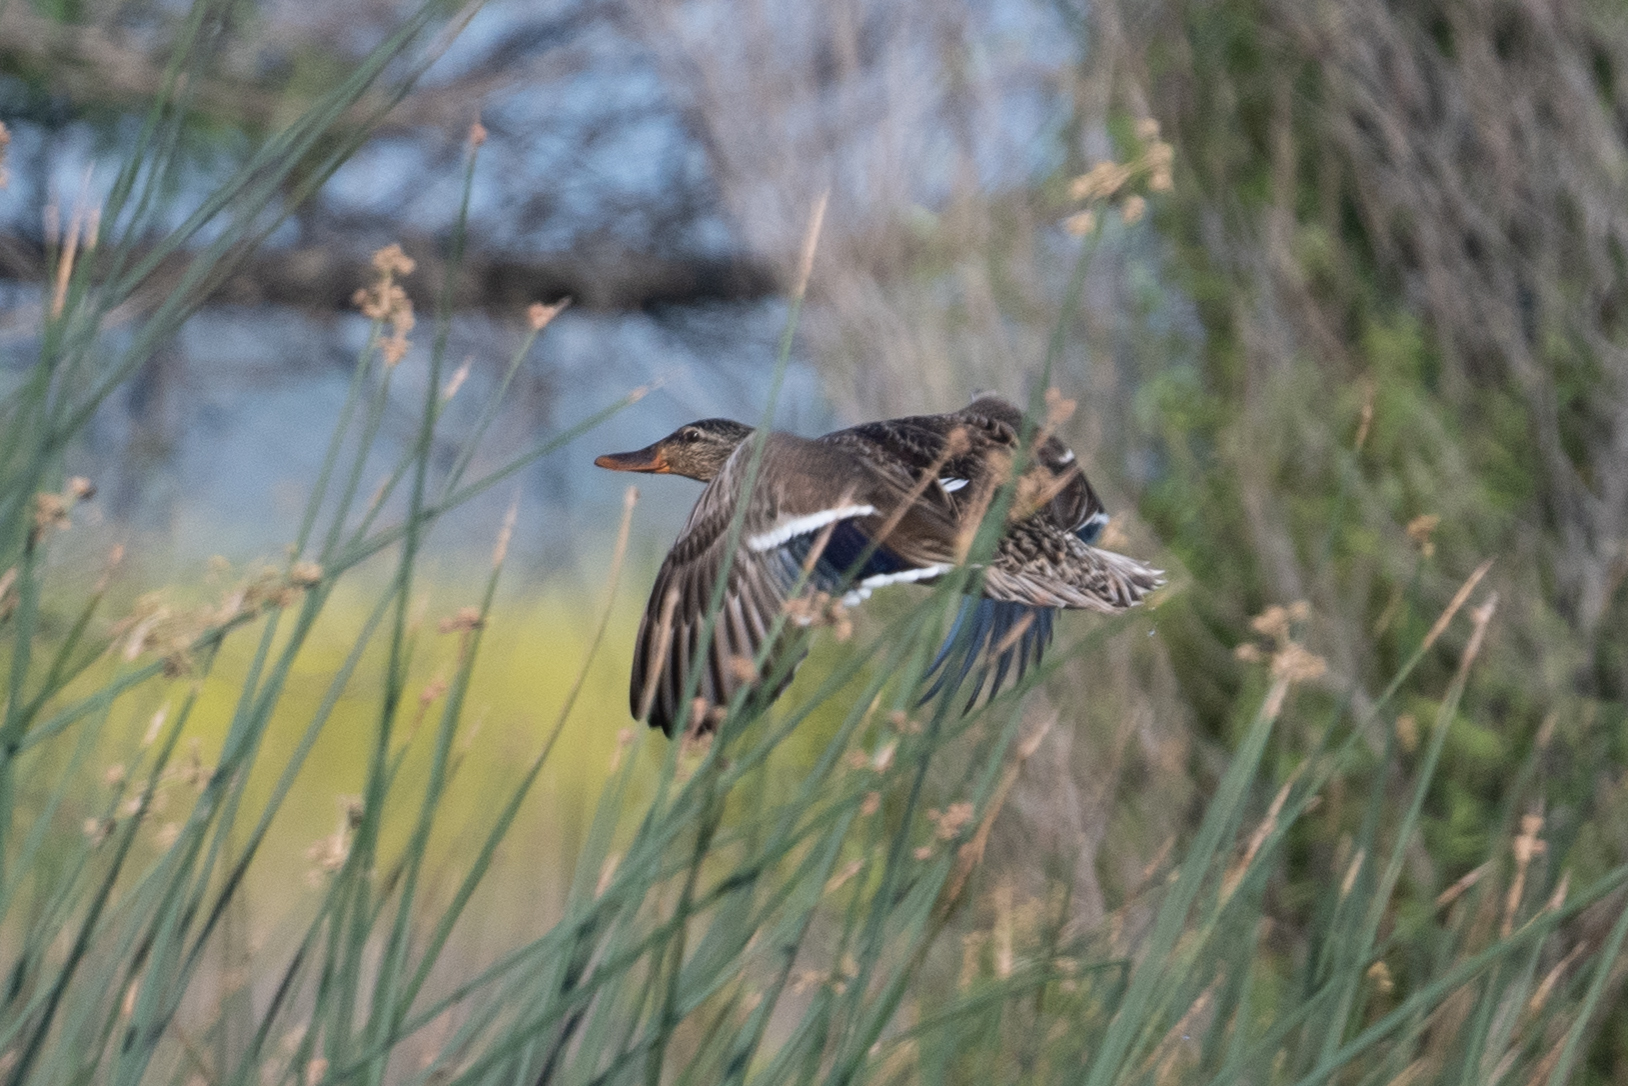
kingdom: Animalia
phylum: Chordata
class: Aves
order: Anseriformes
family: Anatidae
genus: Anas
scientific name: Anas platyrhynchos
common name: Mallard
